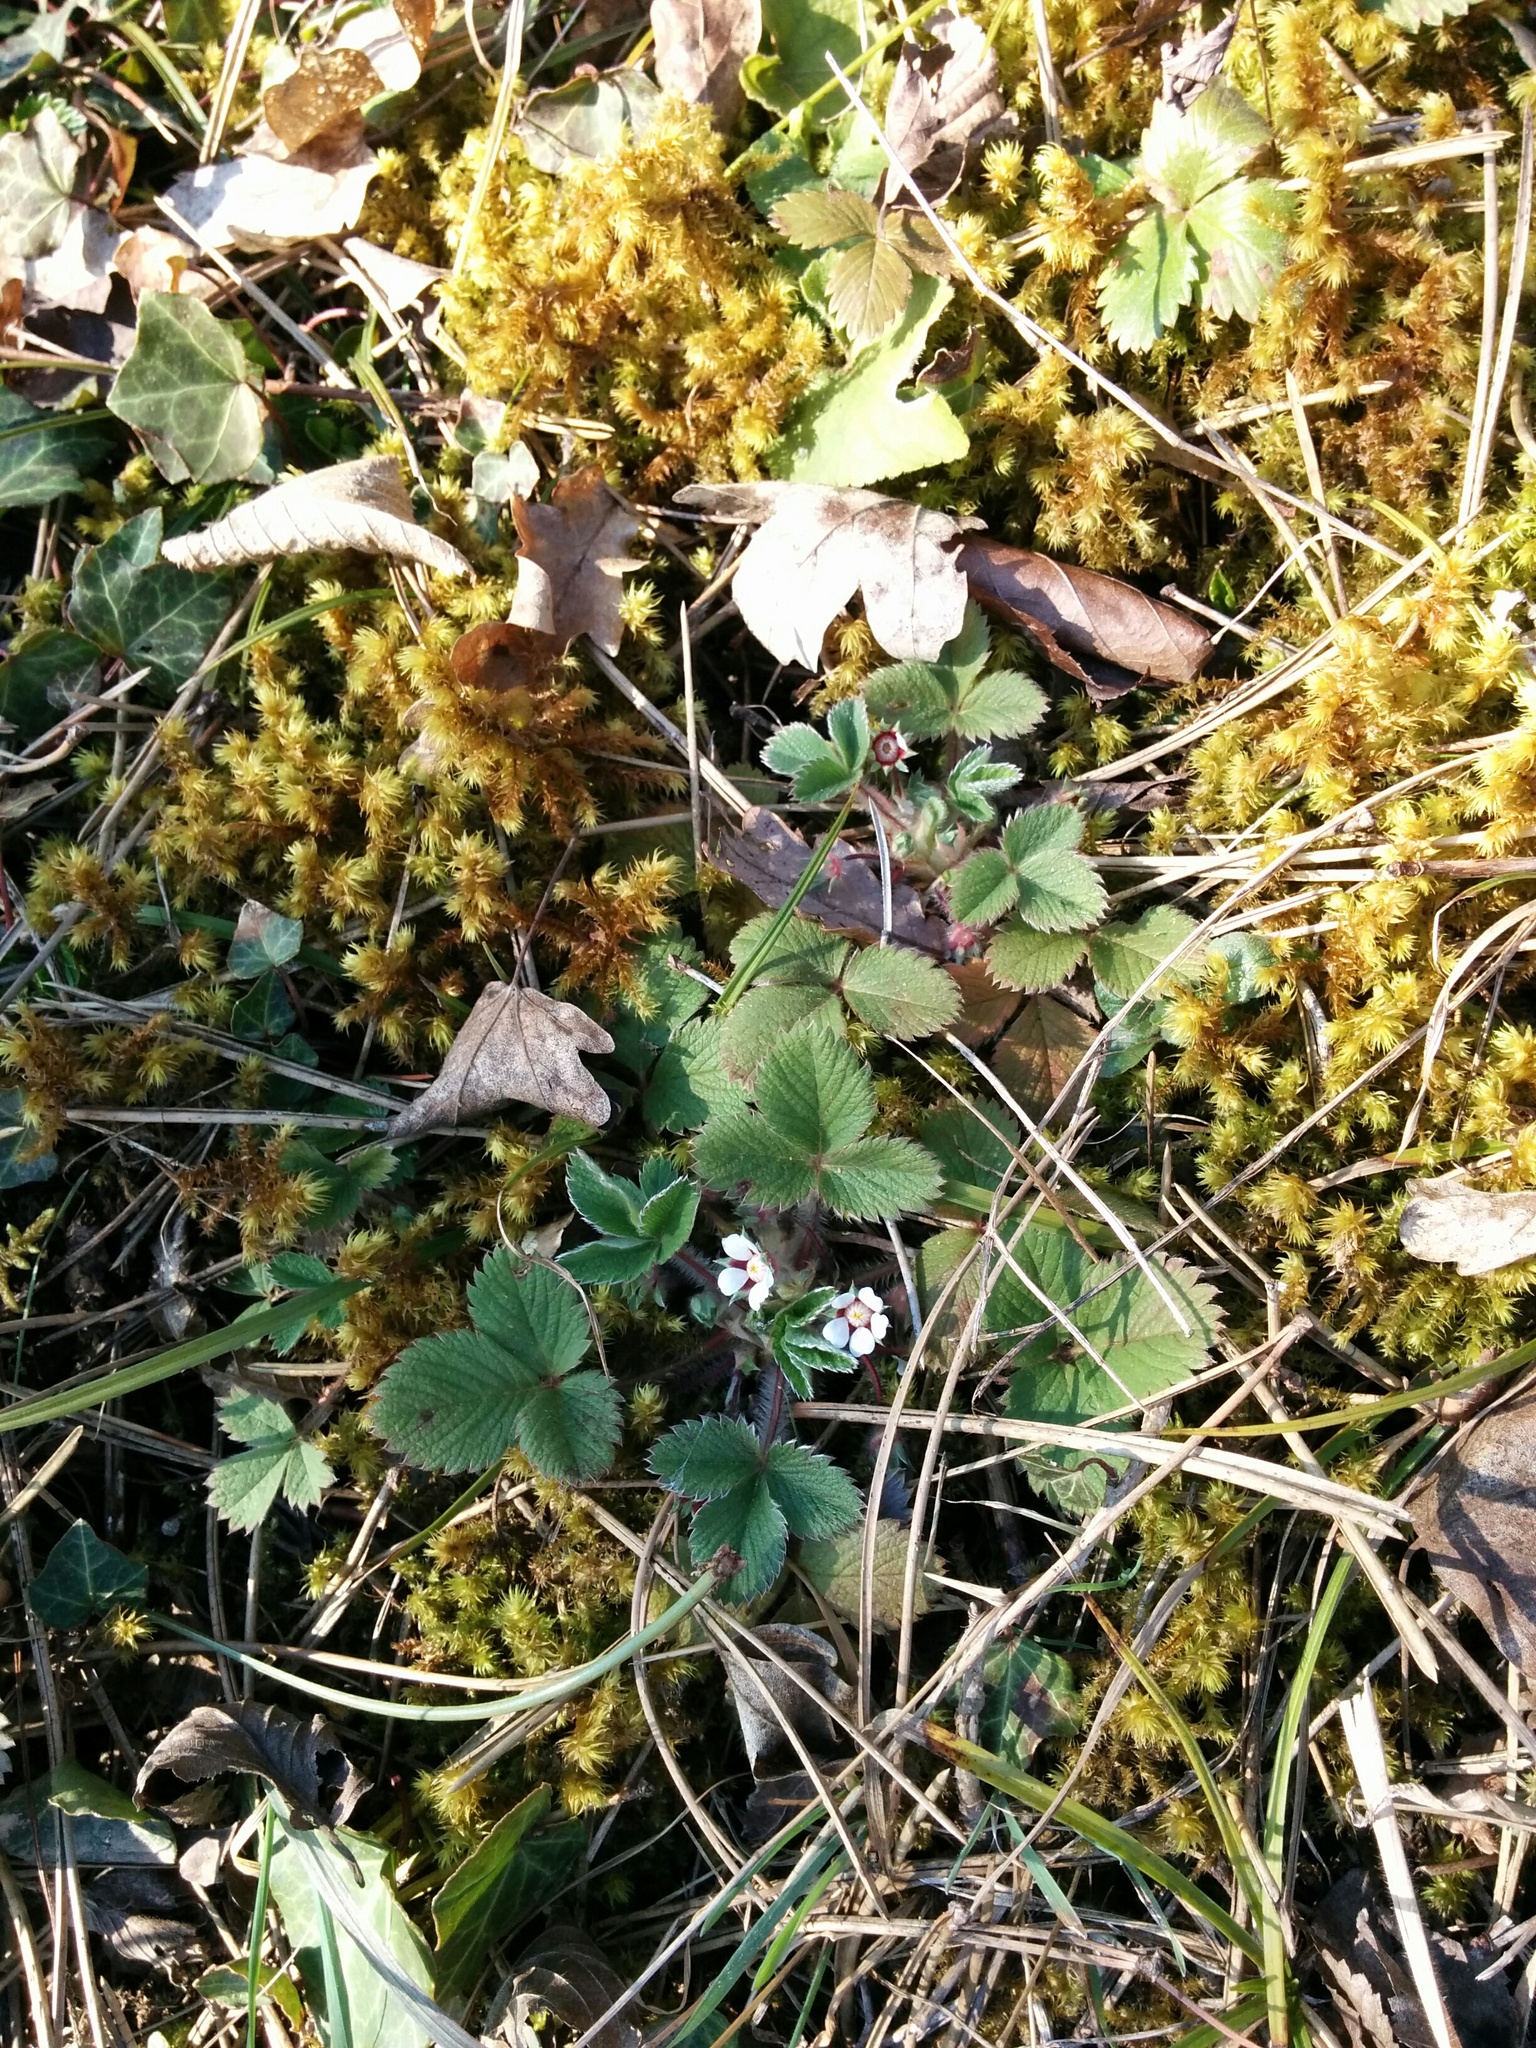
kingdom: Plantae
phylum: Tracheophyta
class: Magnoliopsida
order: Rosales
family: Rosaceae
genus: Potentilla
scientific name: Potentilla micrantha
